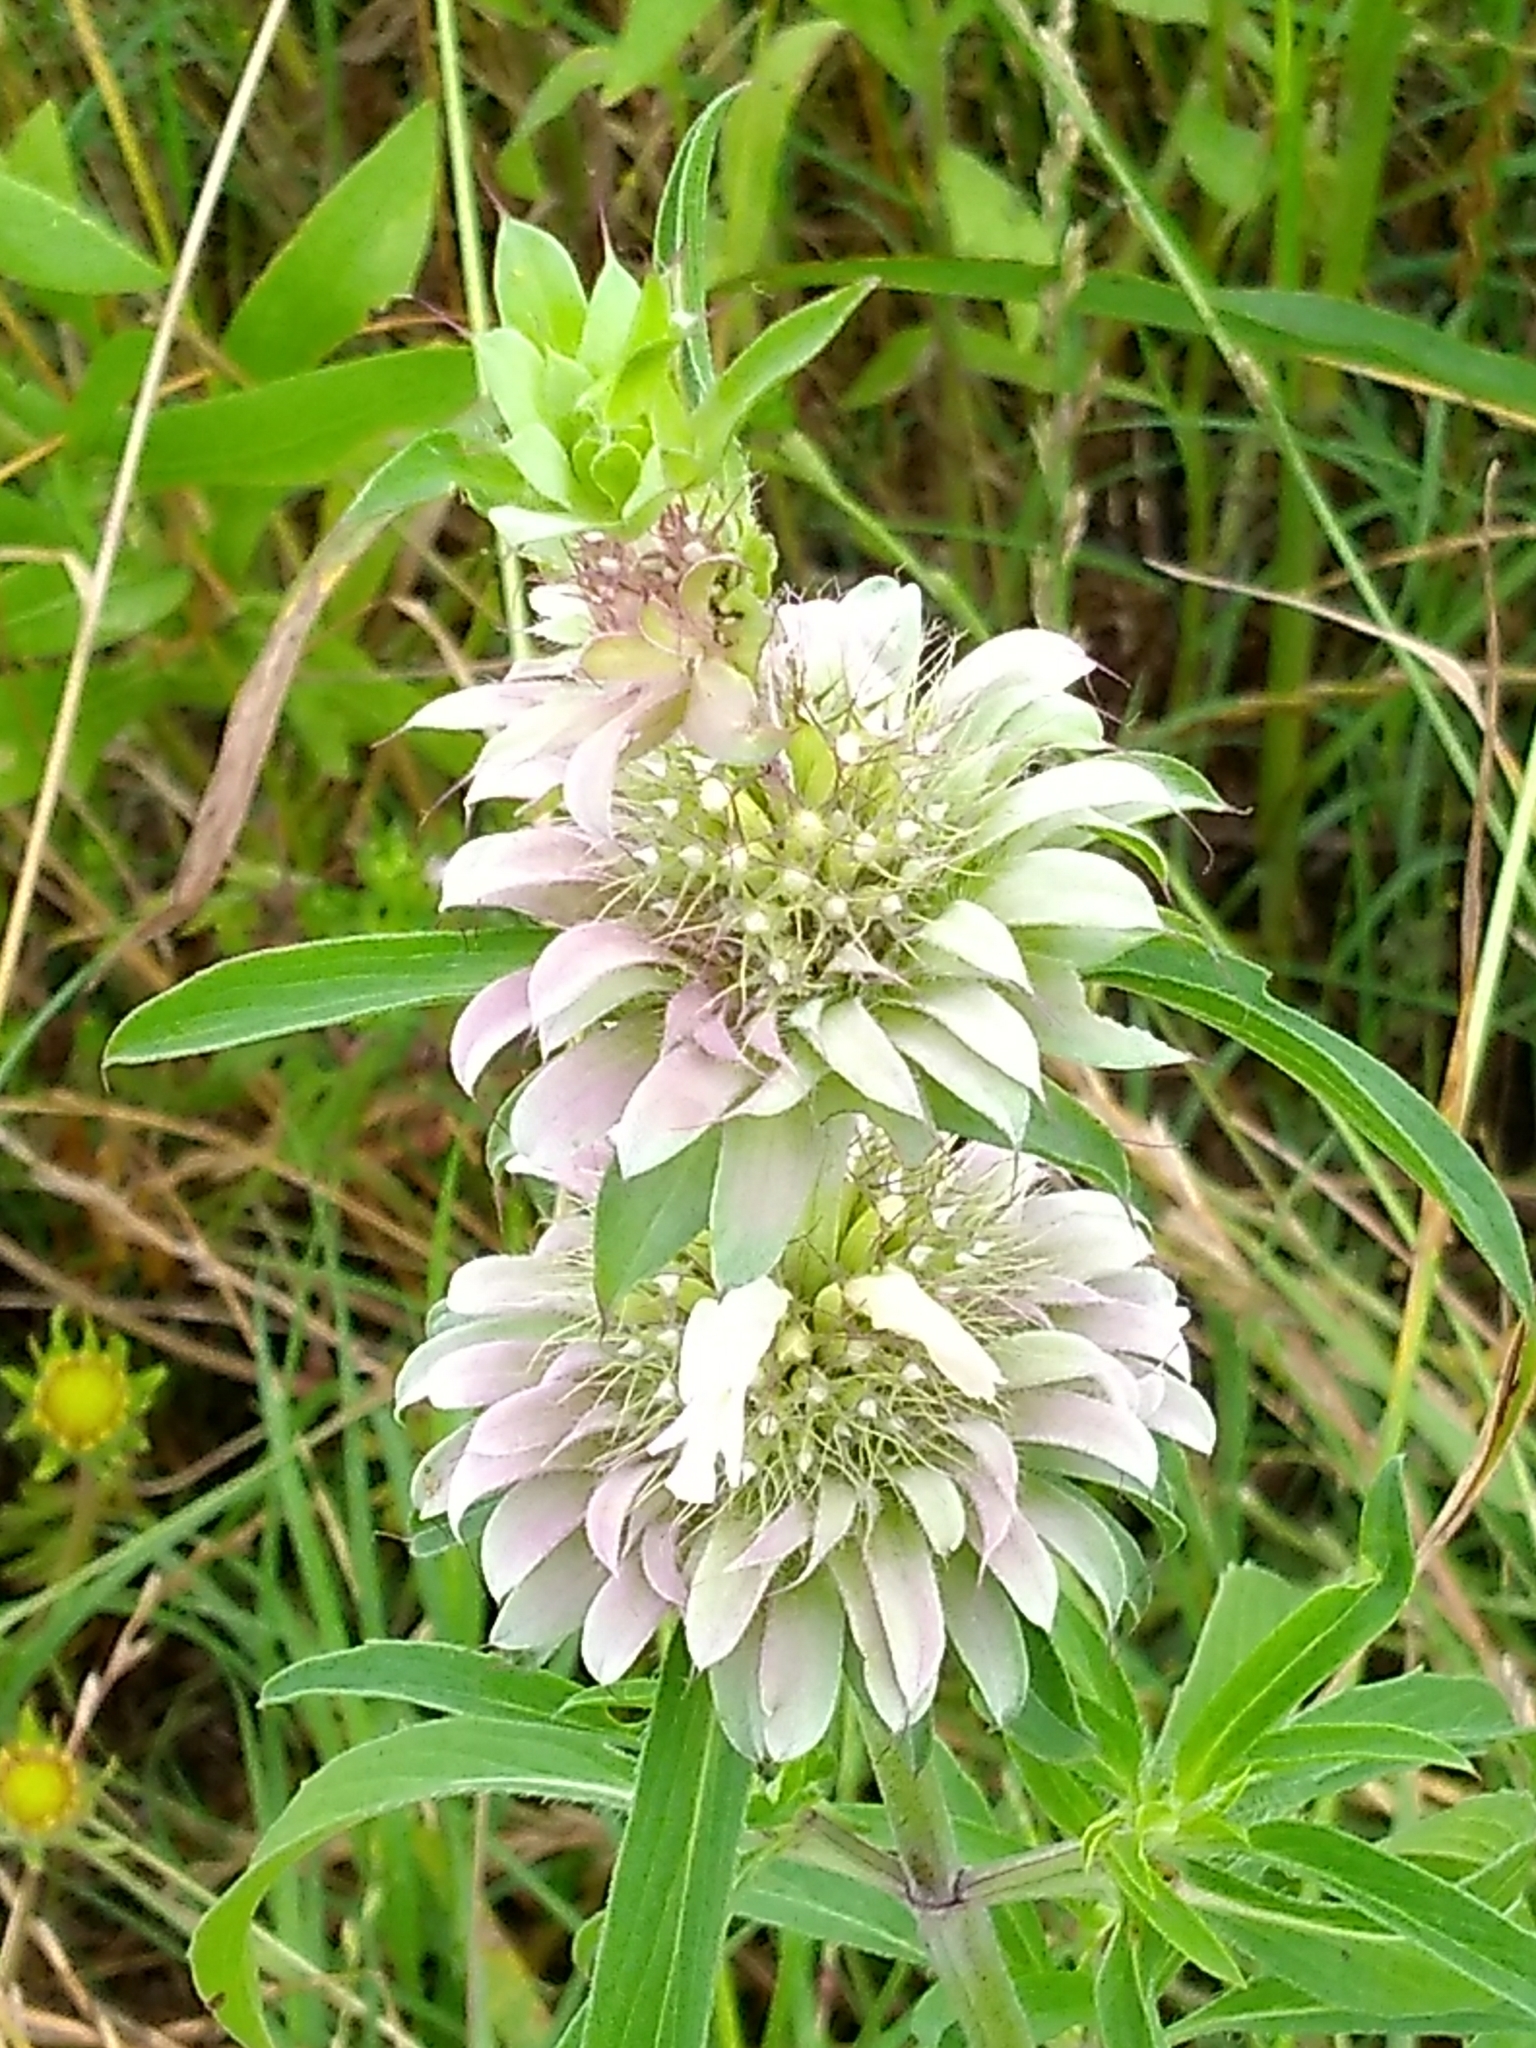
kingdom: Plantae
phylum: Tracheophyta
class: Magnoliopsida
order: Lamiales
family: Lamiaceae
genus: Monarda
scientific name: Monarda citriodora
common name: Lemon beebalm
